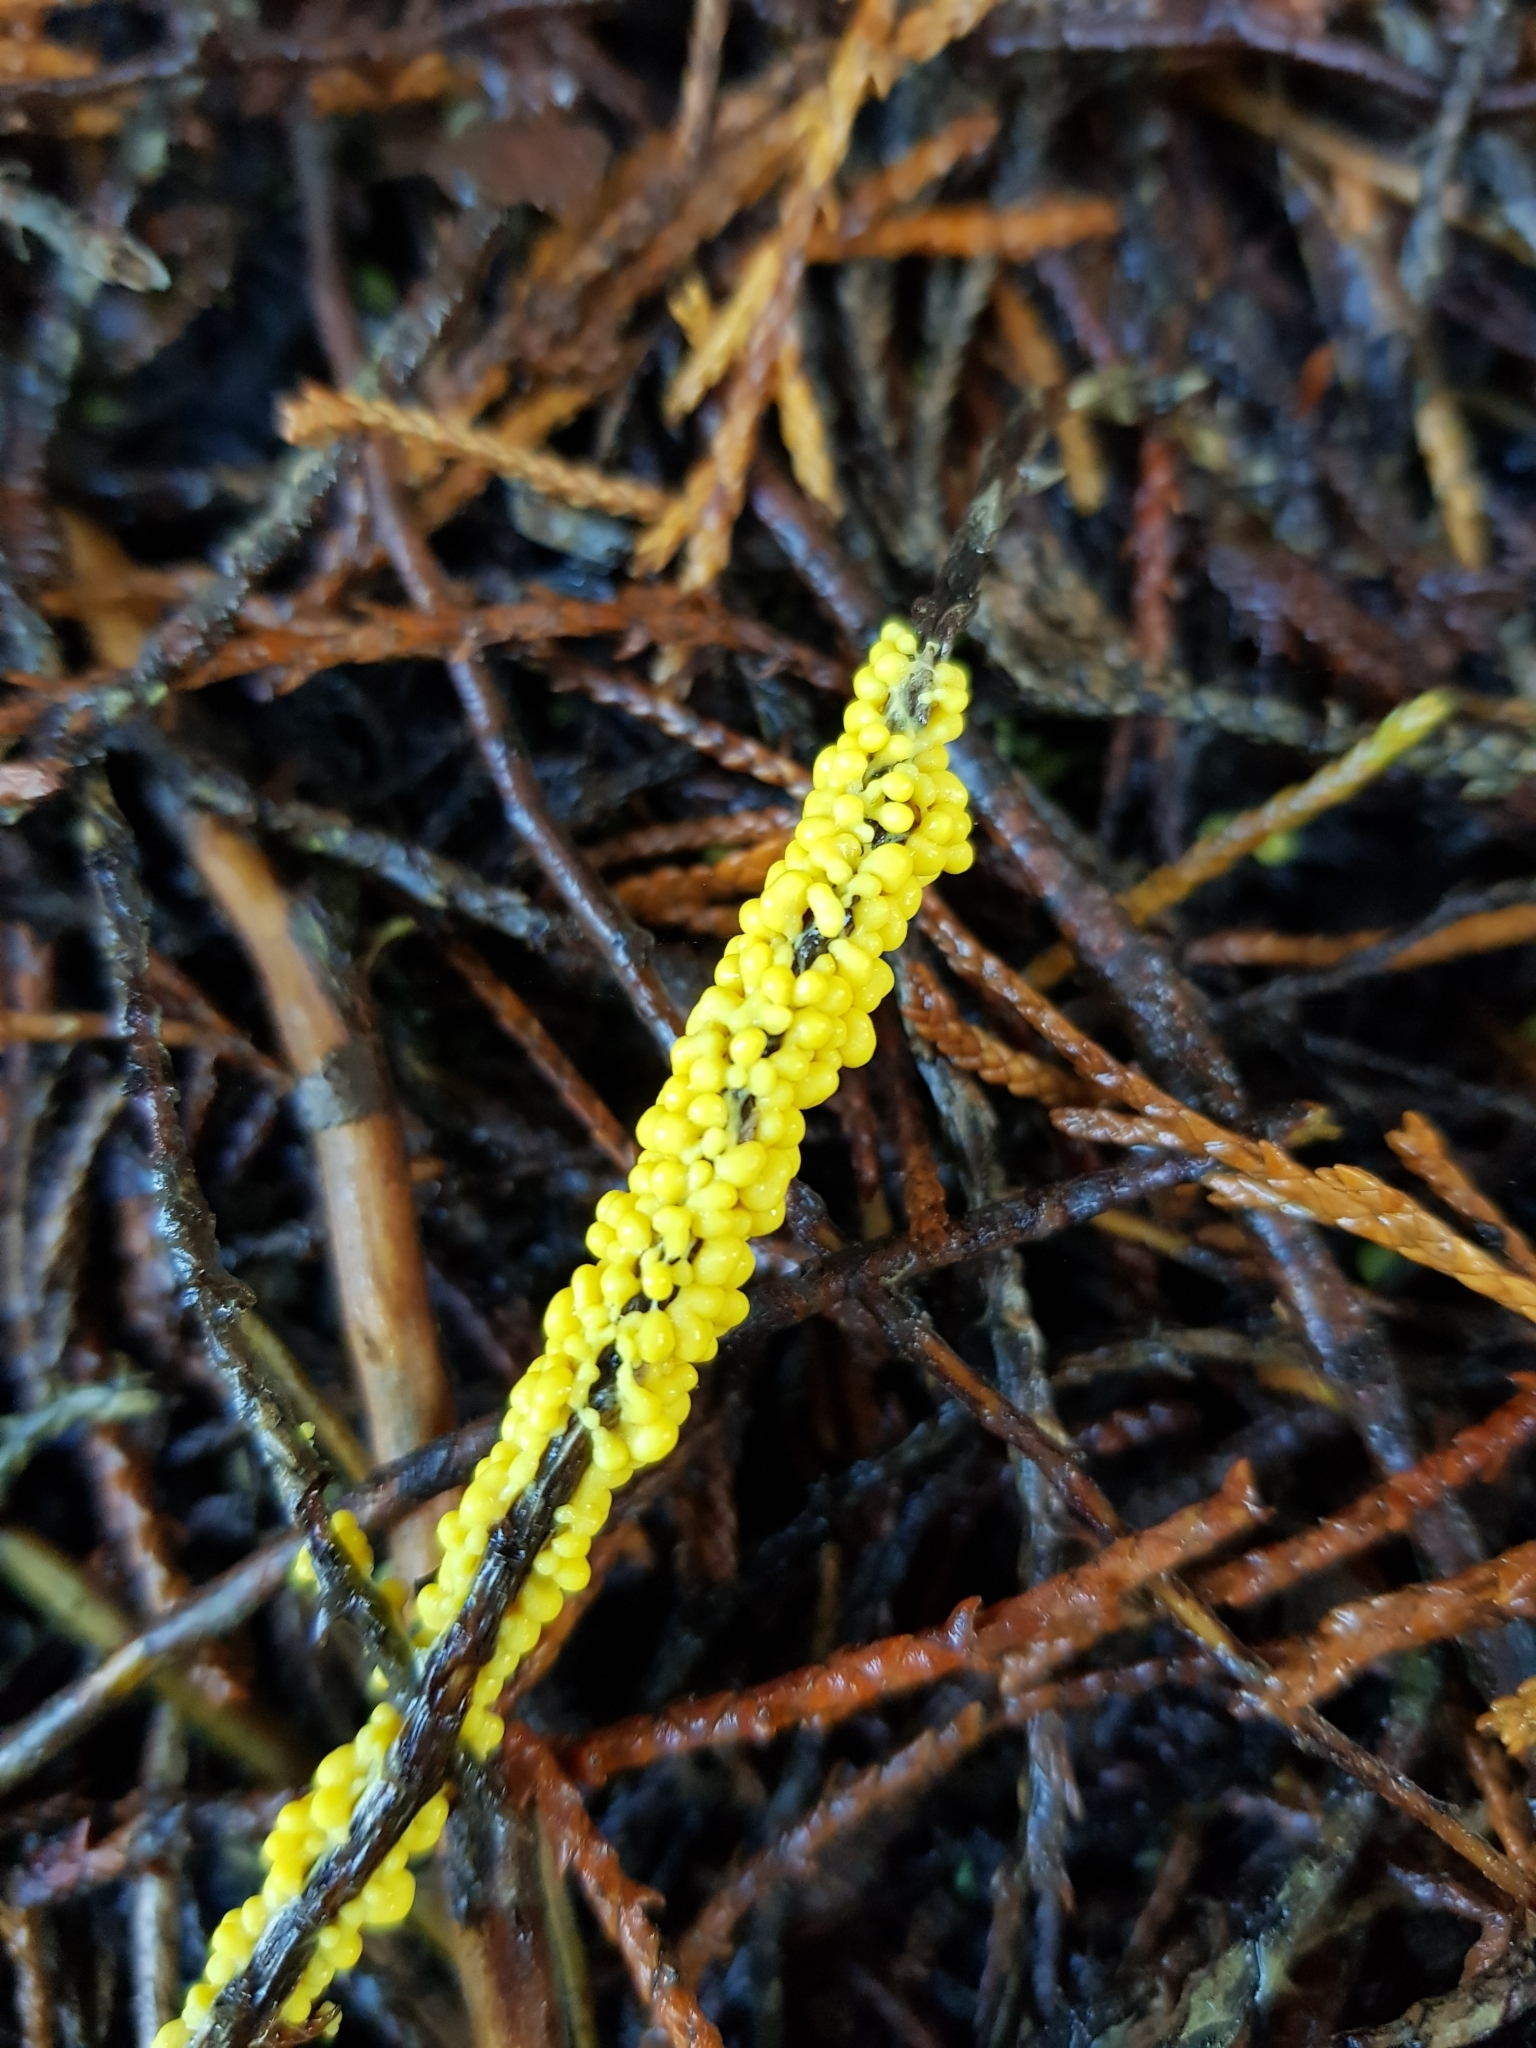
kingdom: Protozoa
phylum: Mycetozoa
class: Myxomycetes
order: Physarales
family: Physaraceae
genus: Leocarpus
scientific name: Leocarpus fragilis
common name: Insect-egg slime
